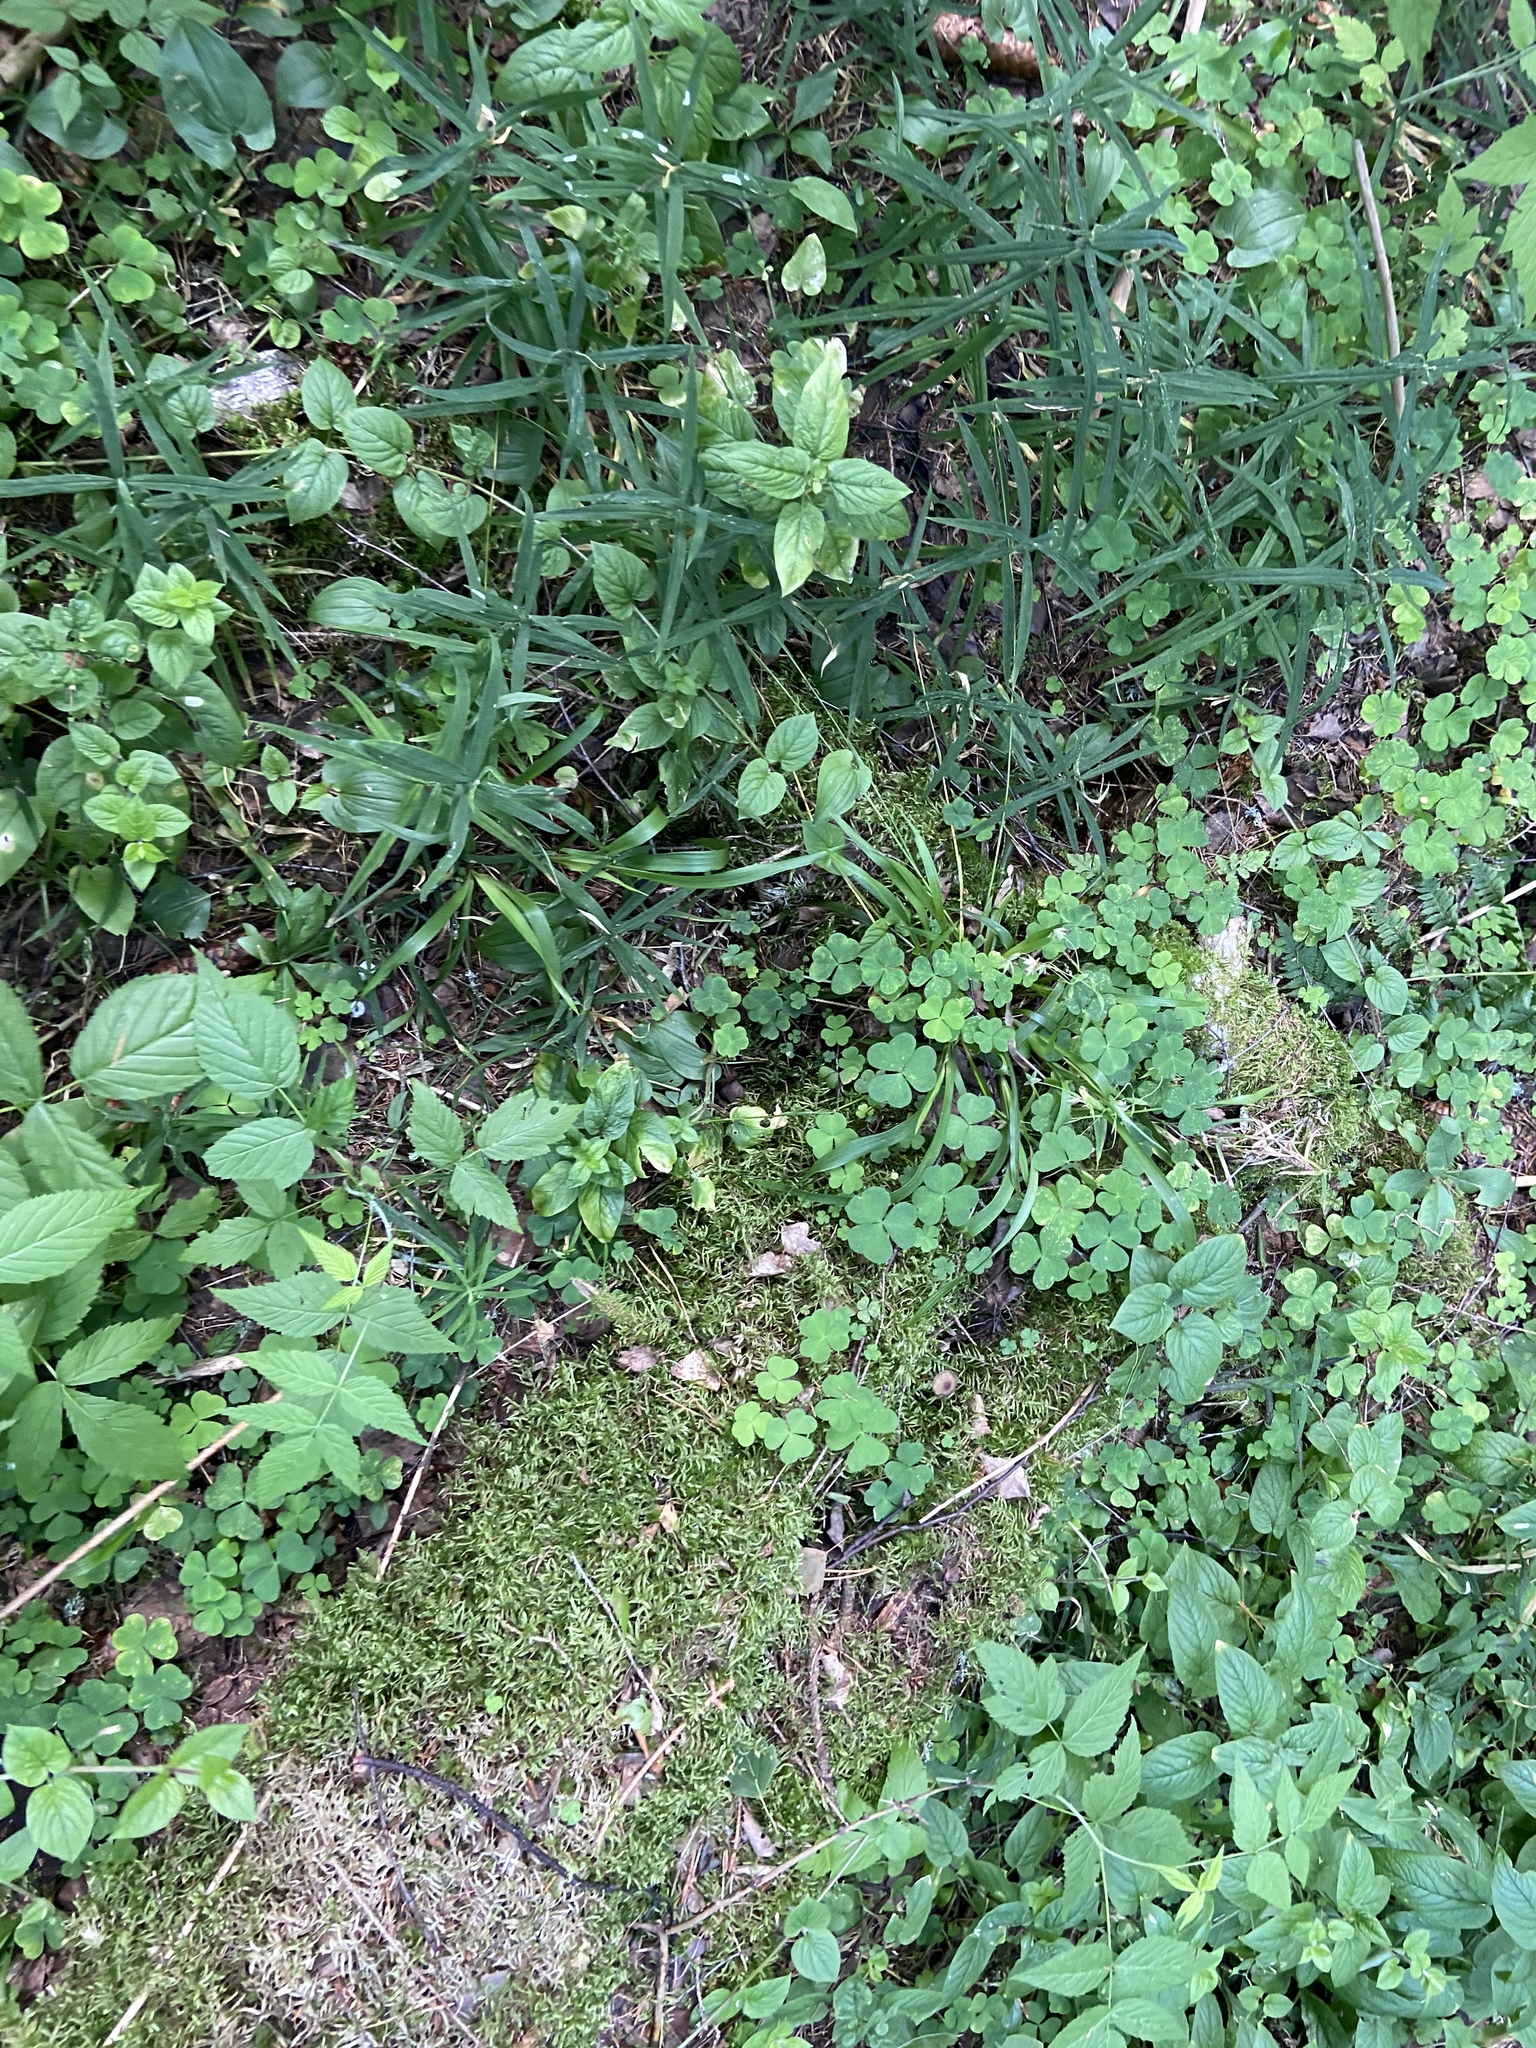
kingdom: Plantae
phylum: Tracheophyta
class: Magnoliopsida
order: Oxalidales
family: Oxalidaceae
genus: Oxalis
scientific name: Oxalis acetosella
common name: Wood-sorrel
